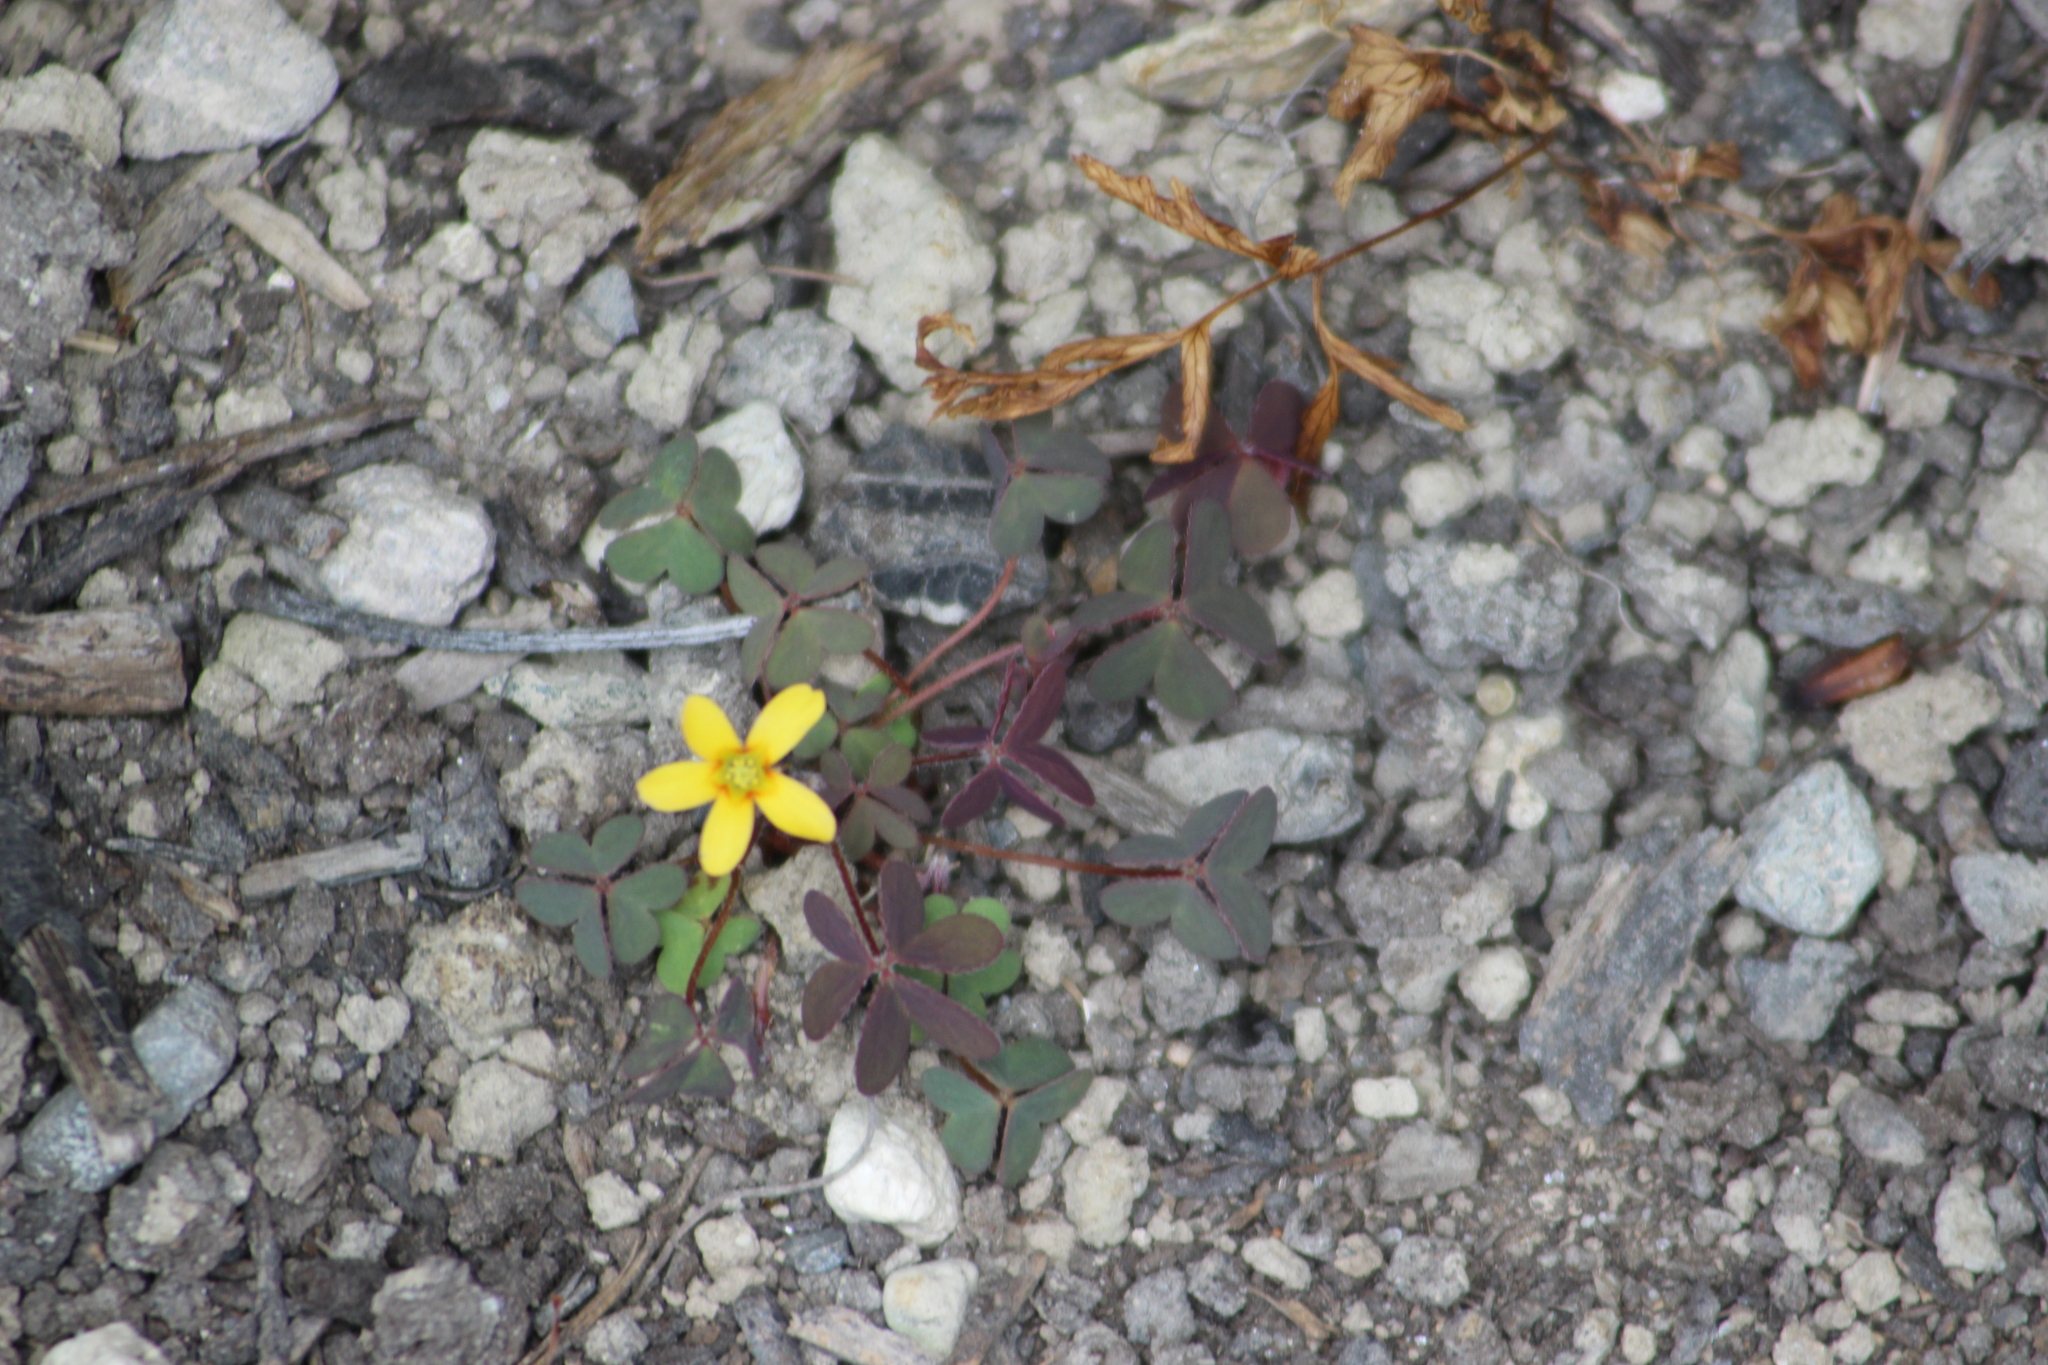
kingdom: Plantae
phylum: Tracheophyta
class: Magnoliopsida
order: Oxalidales
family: Oxalidaceae
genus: Oxalis
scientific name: Oxalis corniculata
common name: Procumbent yellow-sorrel
